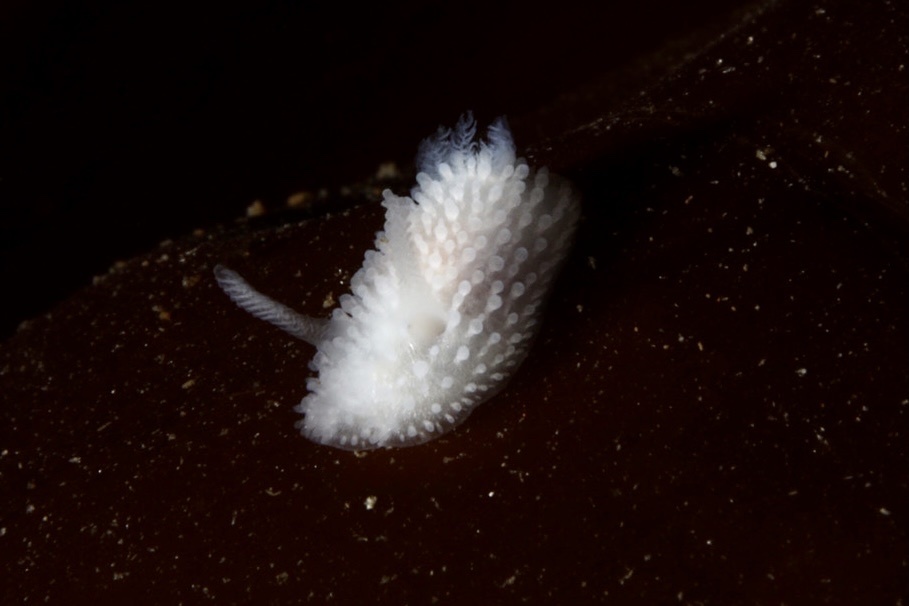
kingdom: Animalia
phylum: Mollusca
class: Gastropoda
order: Nudibranchia
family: Onchidorididae
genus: Onchidoris
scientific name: Onchidoris muricata
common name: Rough doris
